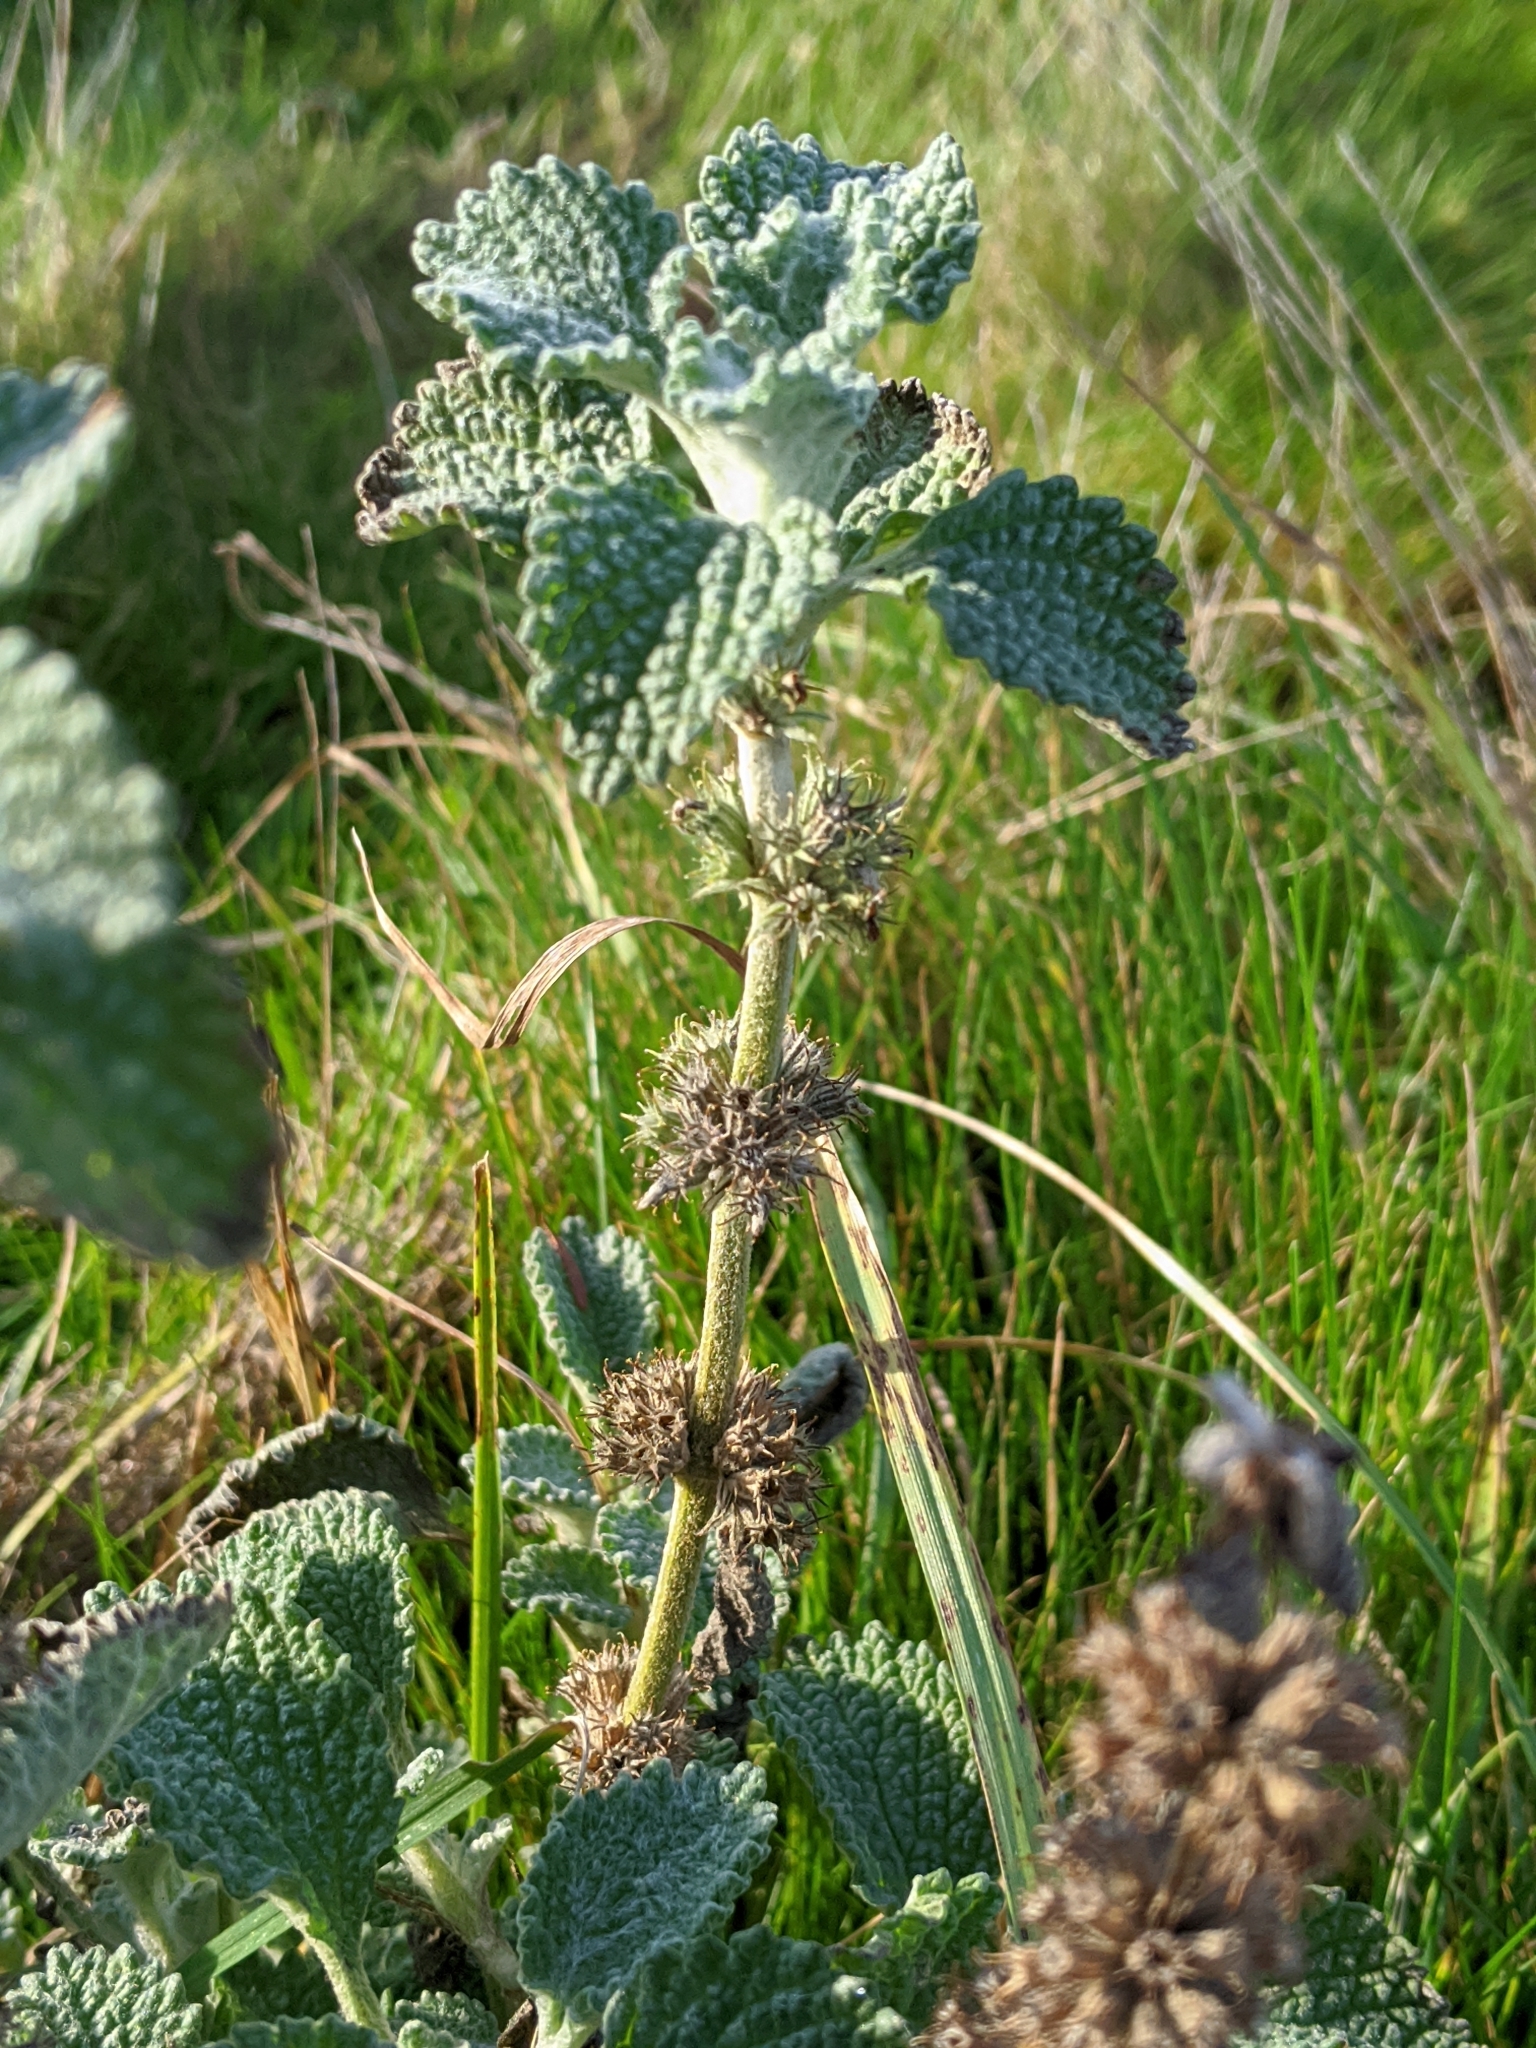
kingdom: Plantae
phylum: Tracheophyta
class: Magnoliopsida
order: Lamiales
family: Lamiaceae
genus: Marrubium
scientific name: Marrubium vulgare
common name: Horehound
